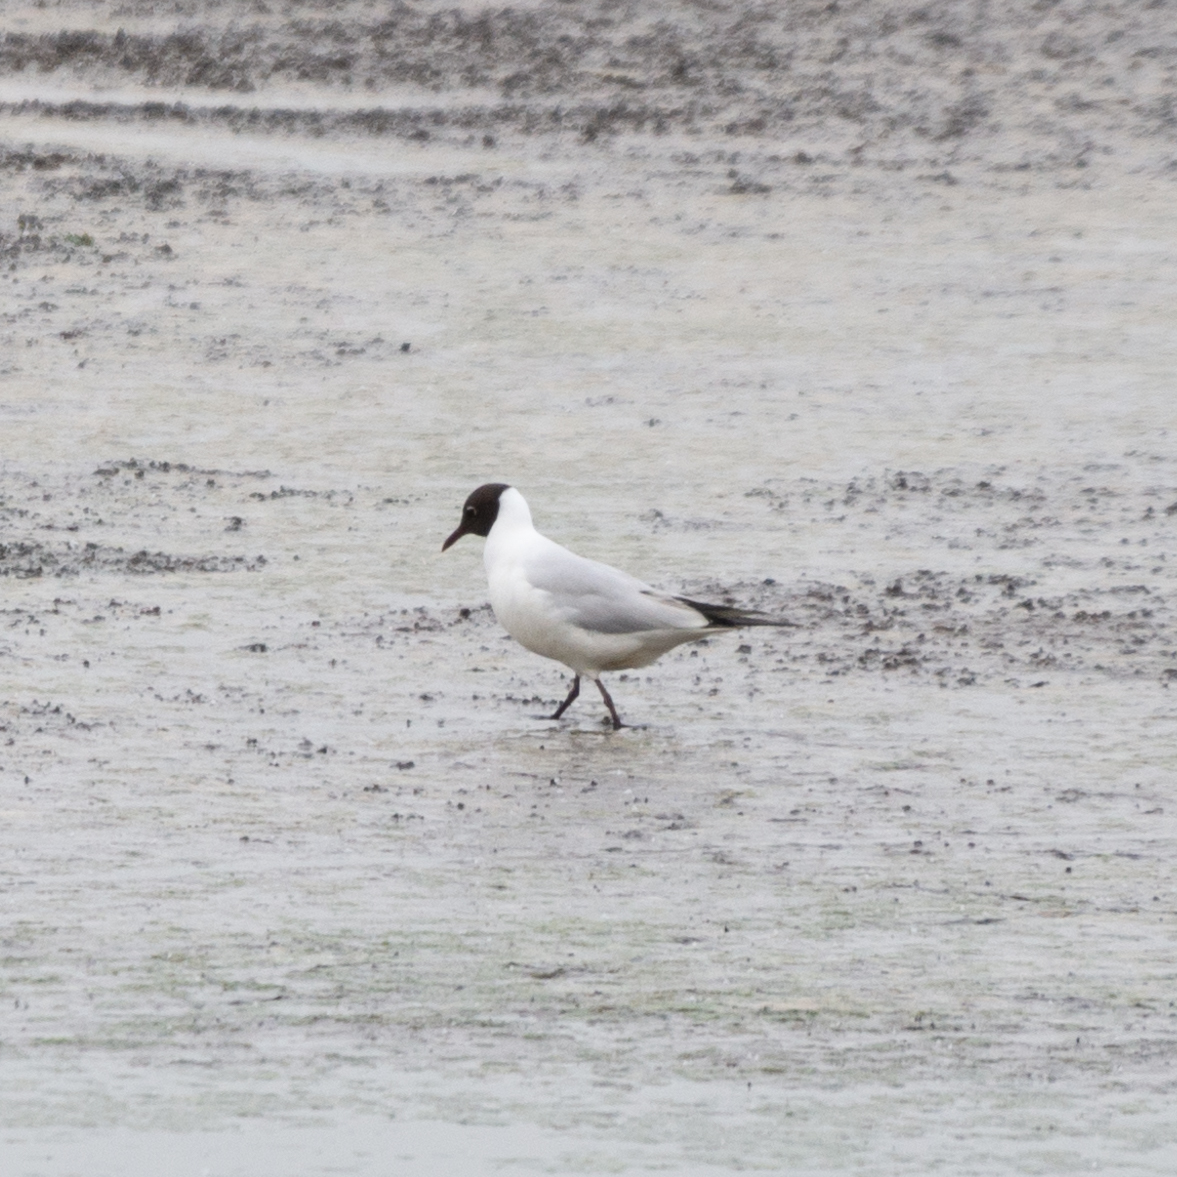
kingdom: Animalia
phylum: Chordata
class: Aves
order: Charadriiformes
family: Laridae
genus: Chroicocephalus
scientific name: Chroicocephalus ridibundus
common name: Black-headed gull
